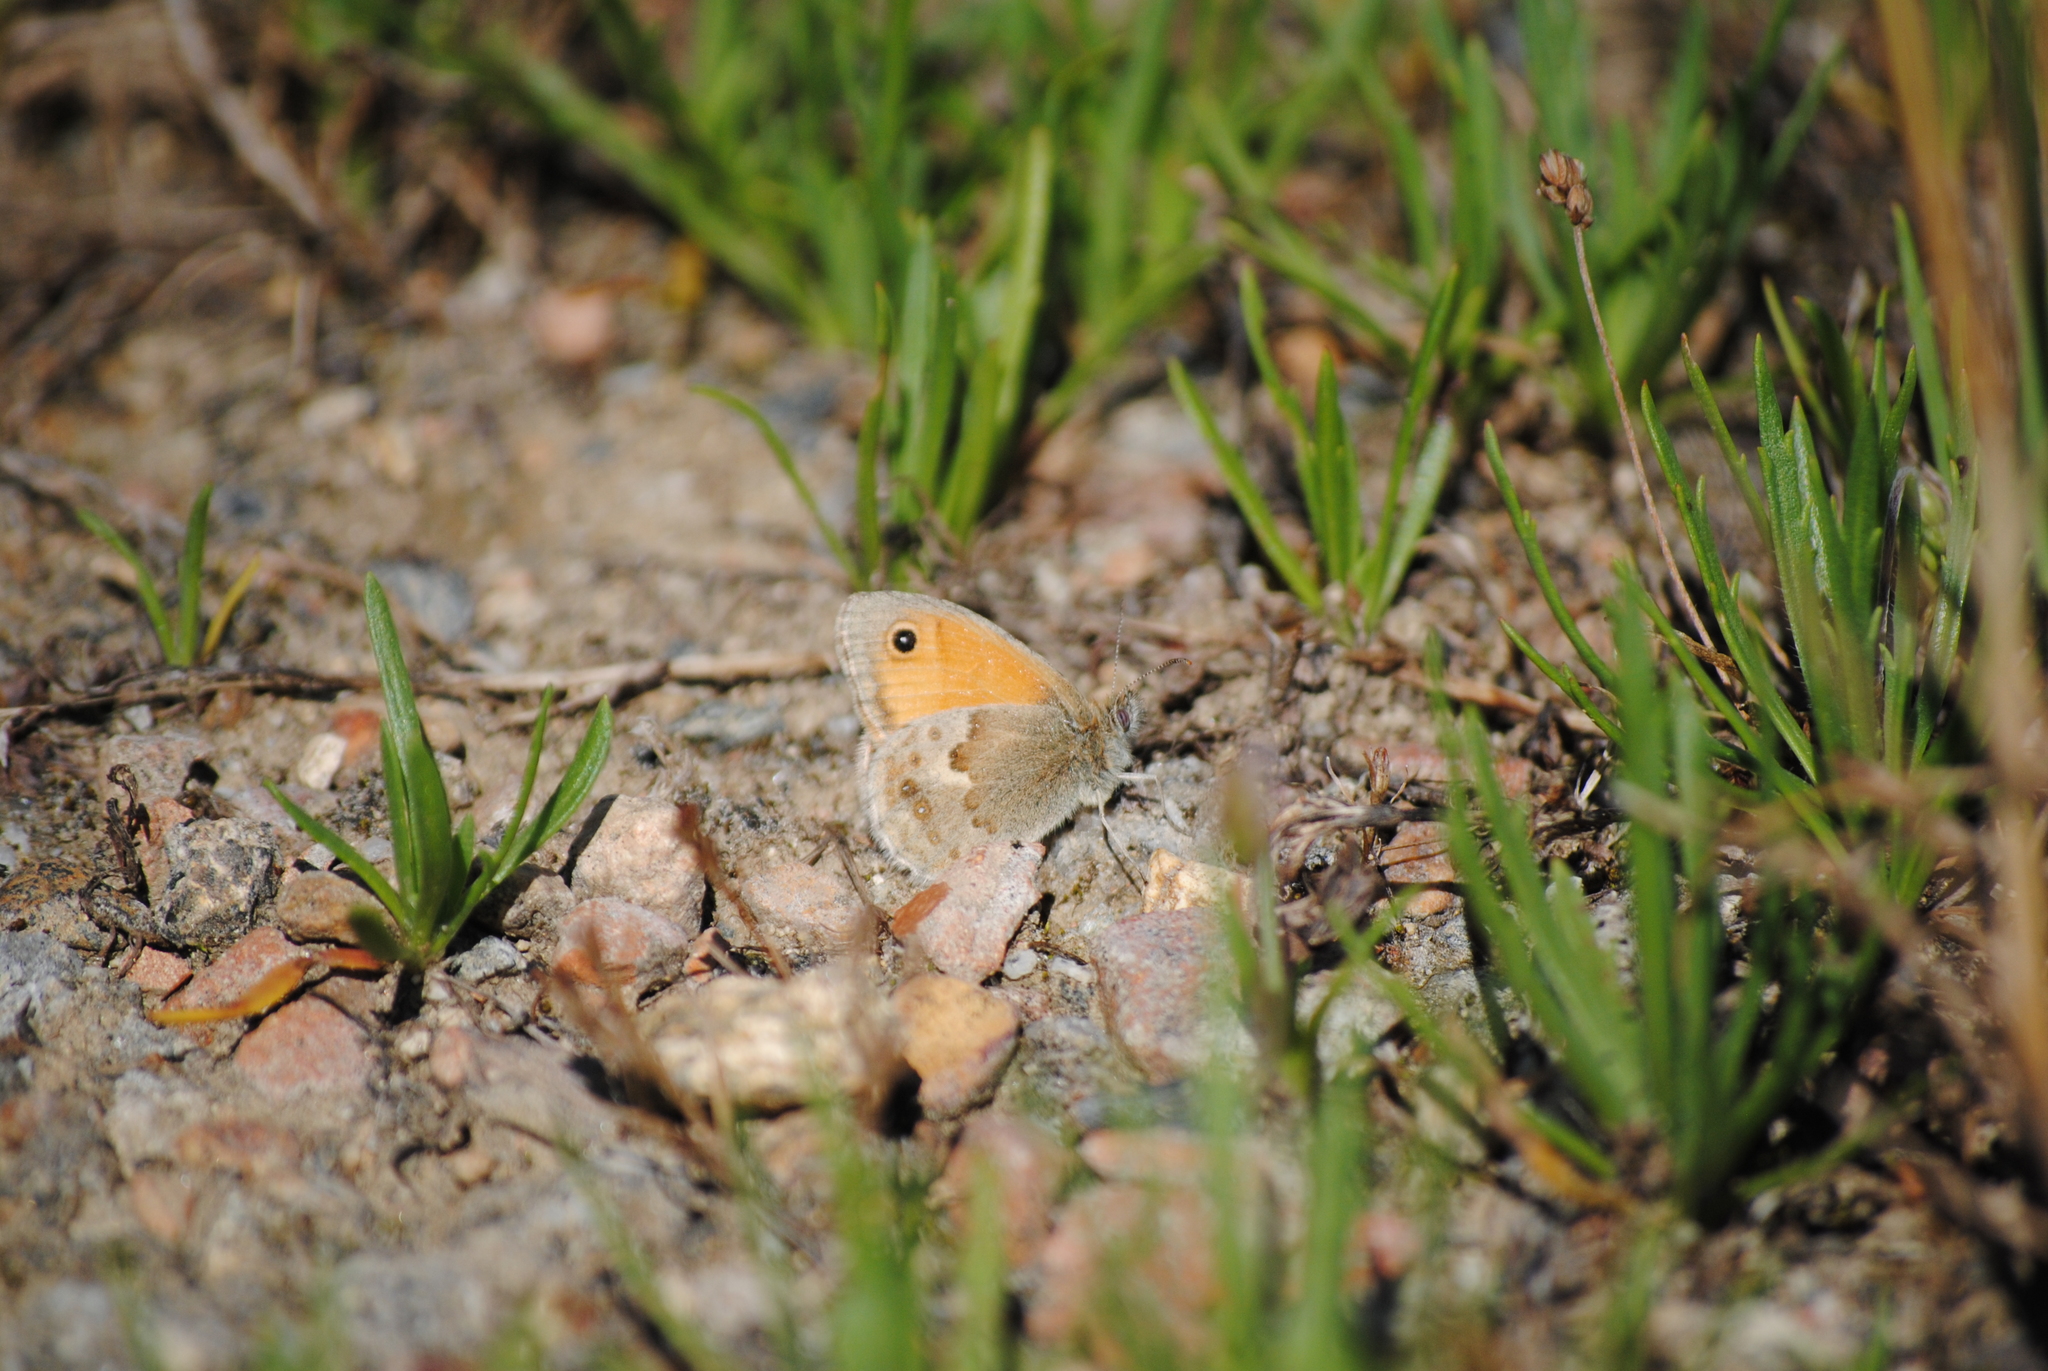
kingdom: Animalia
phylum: Arthropoda
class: Insecta
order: Lepidoptera
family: Nymphalidae
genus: Coenonympha
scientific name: Coenonympha pamphilus
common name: Small heath
